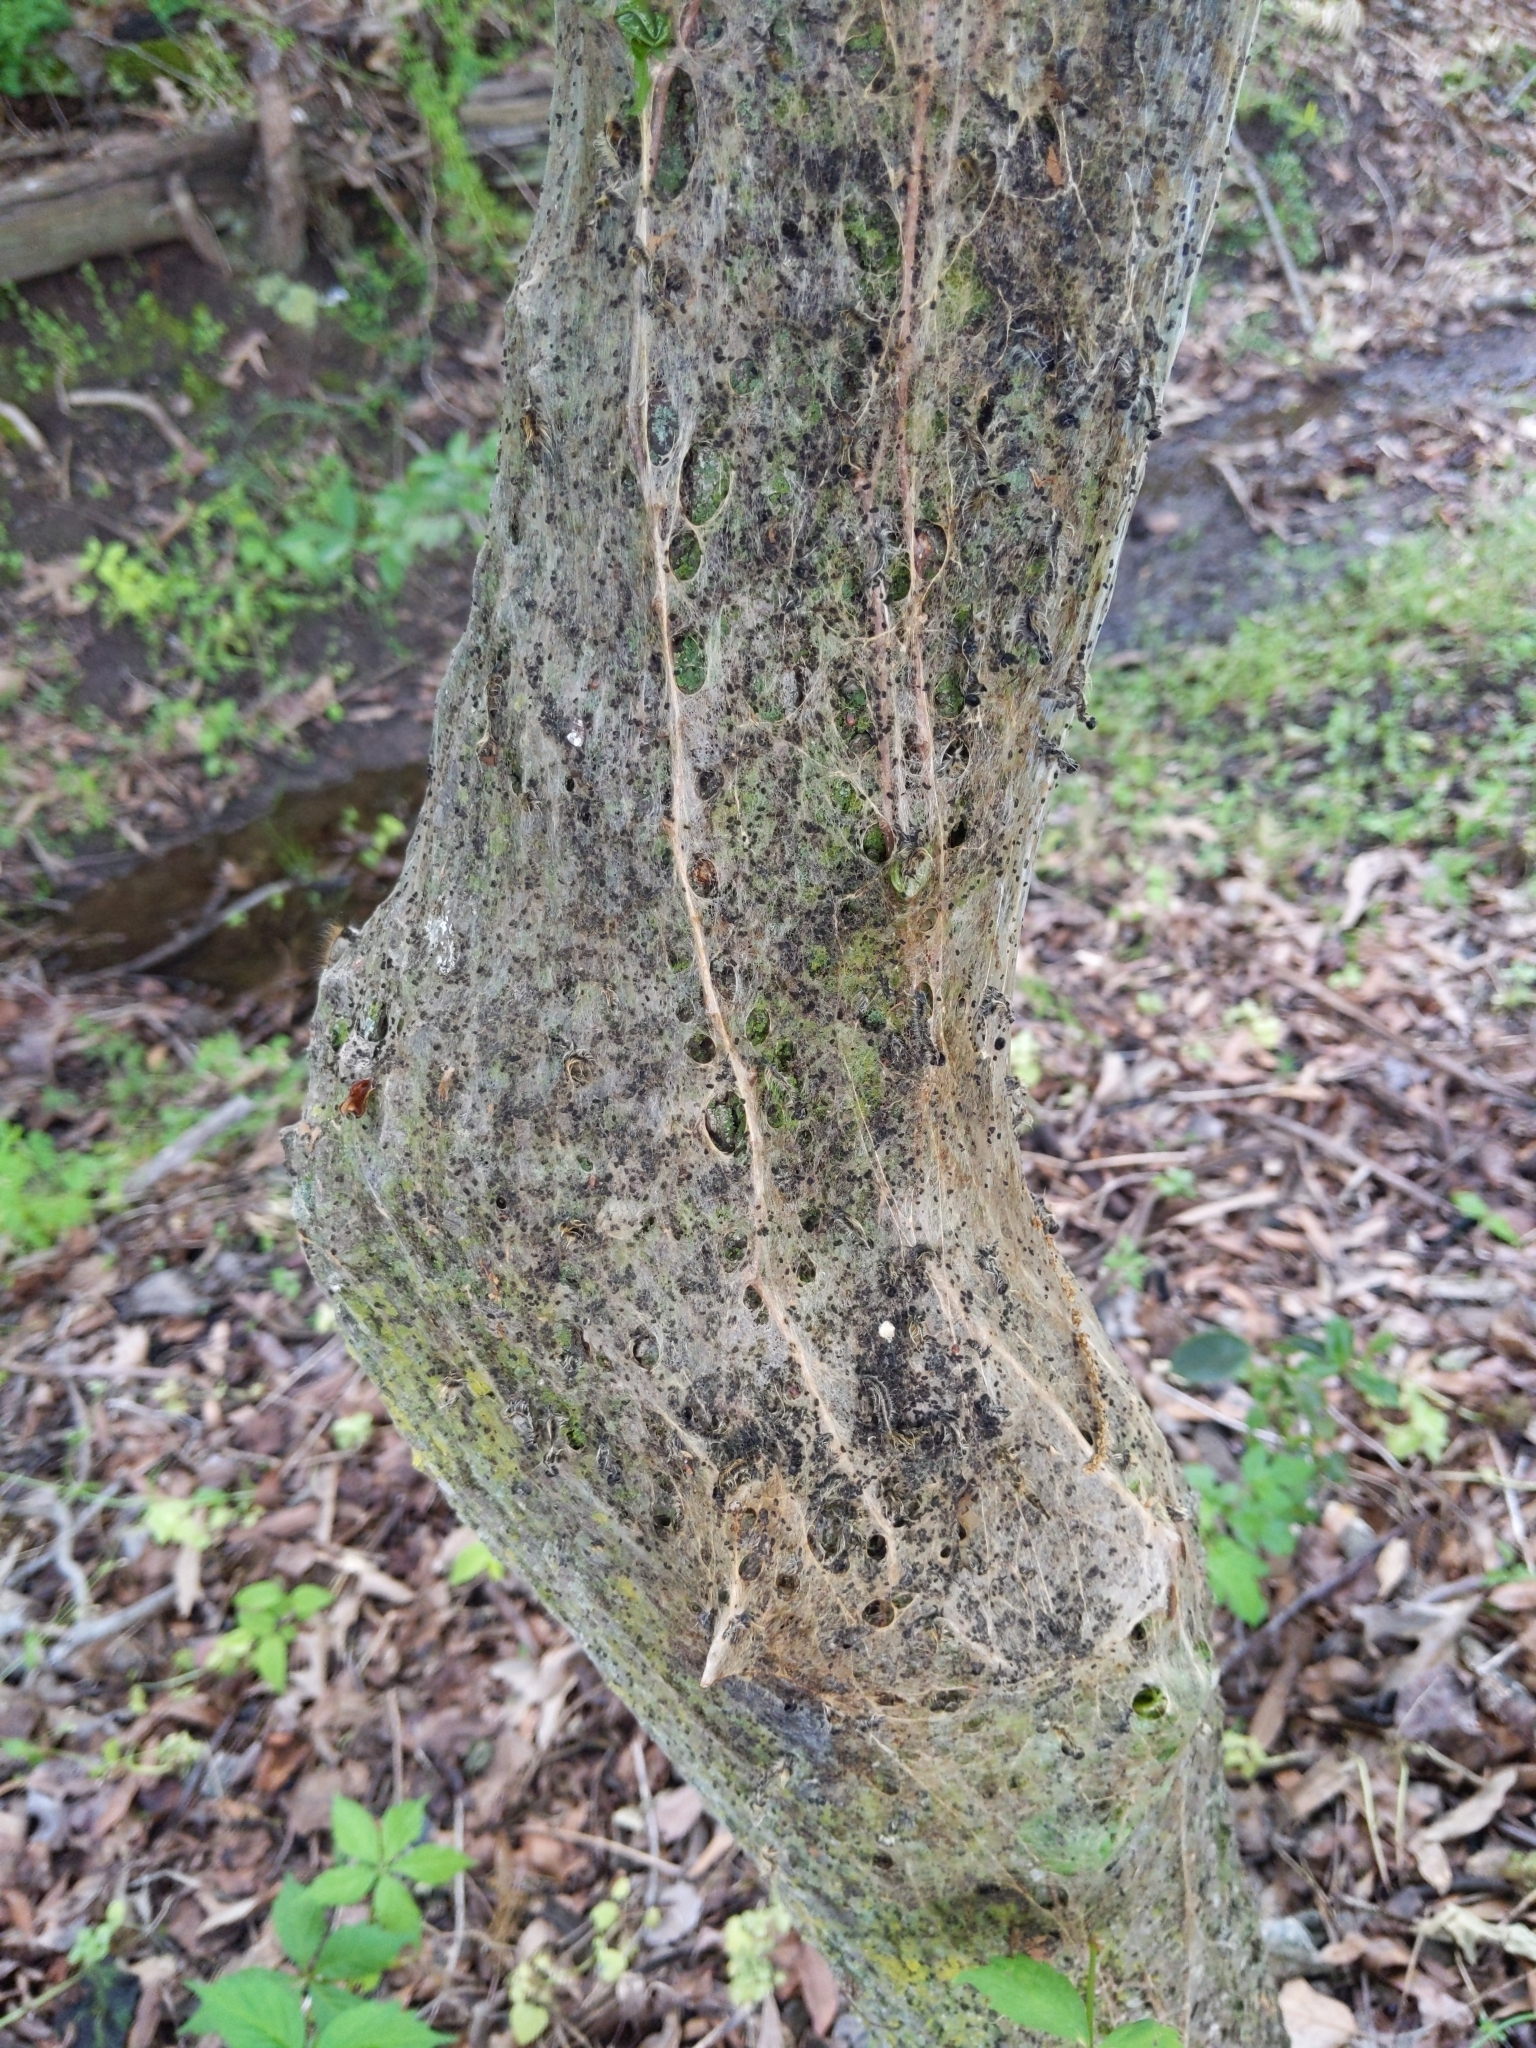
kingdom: Animalia
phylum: Arthropoda
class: Insecta
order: Lepidoptera
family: Lasiocampidae
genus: Malacosoma
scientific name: Malacosoma americana
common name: Eastern tent caterpillar moth
